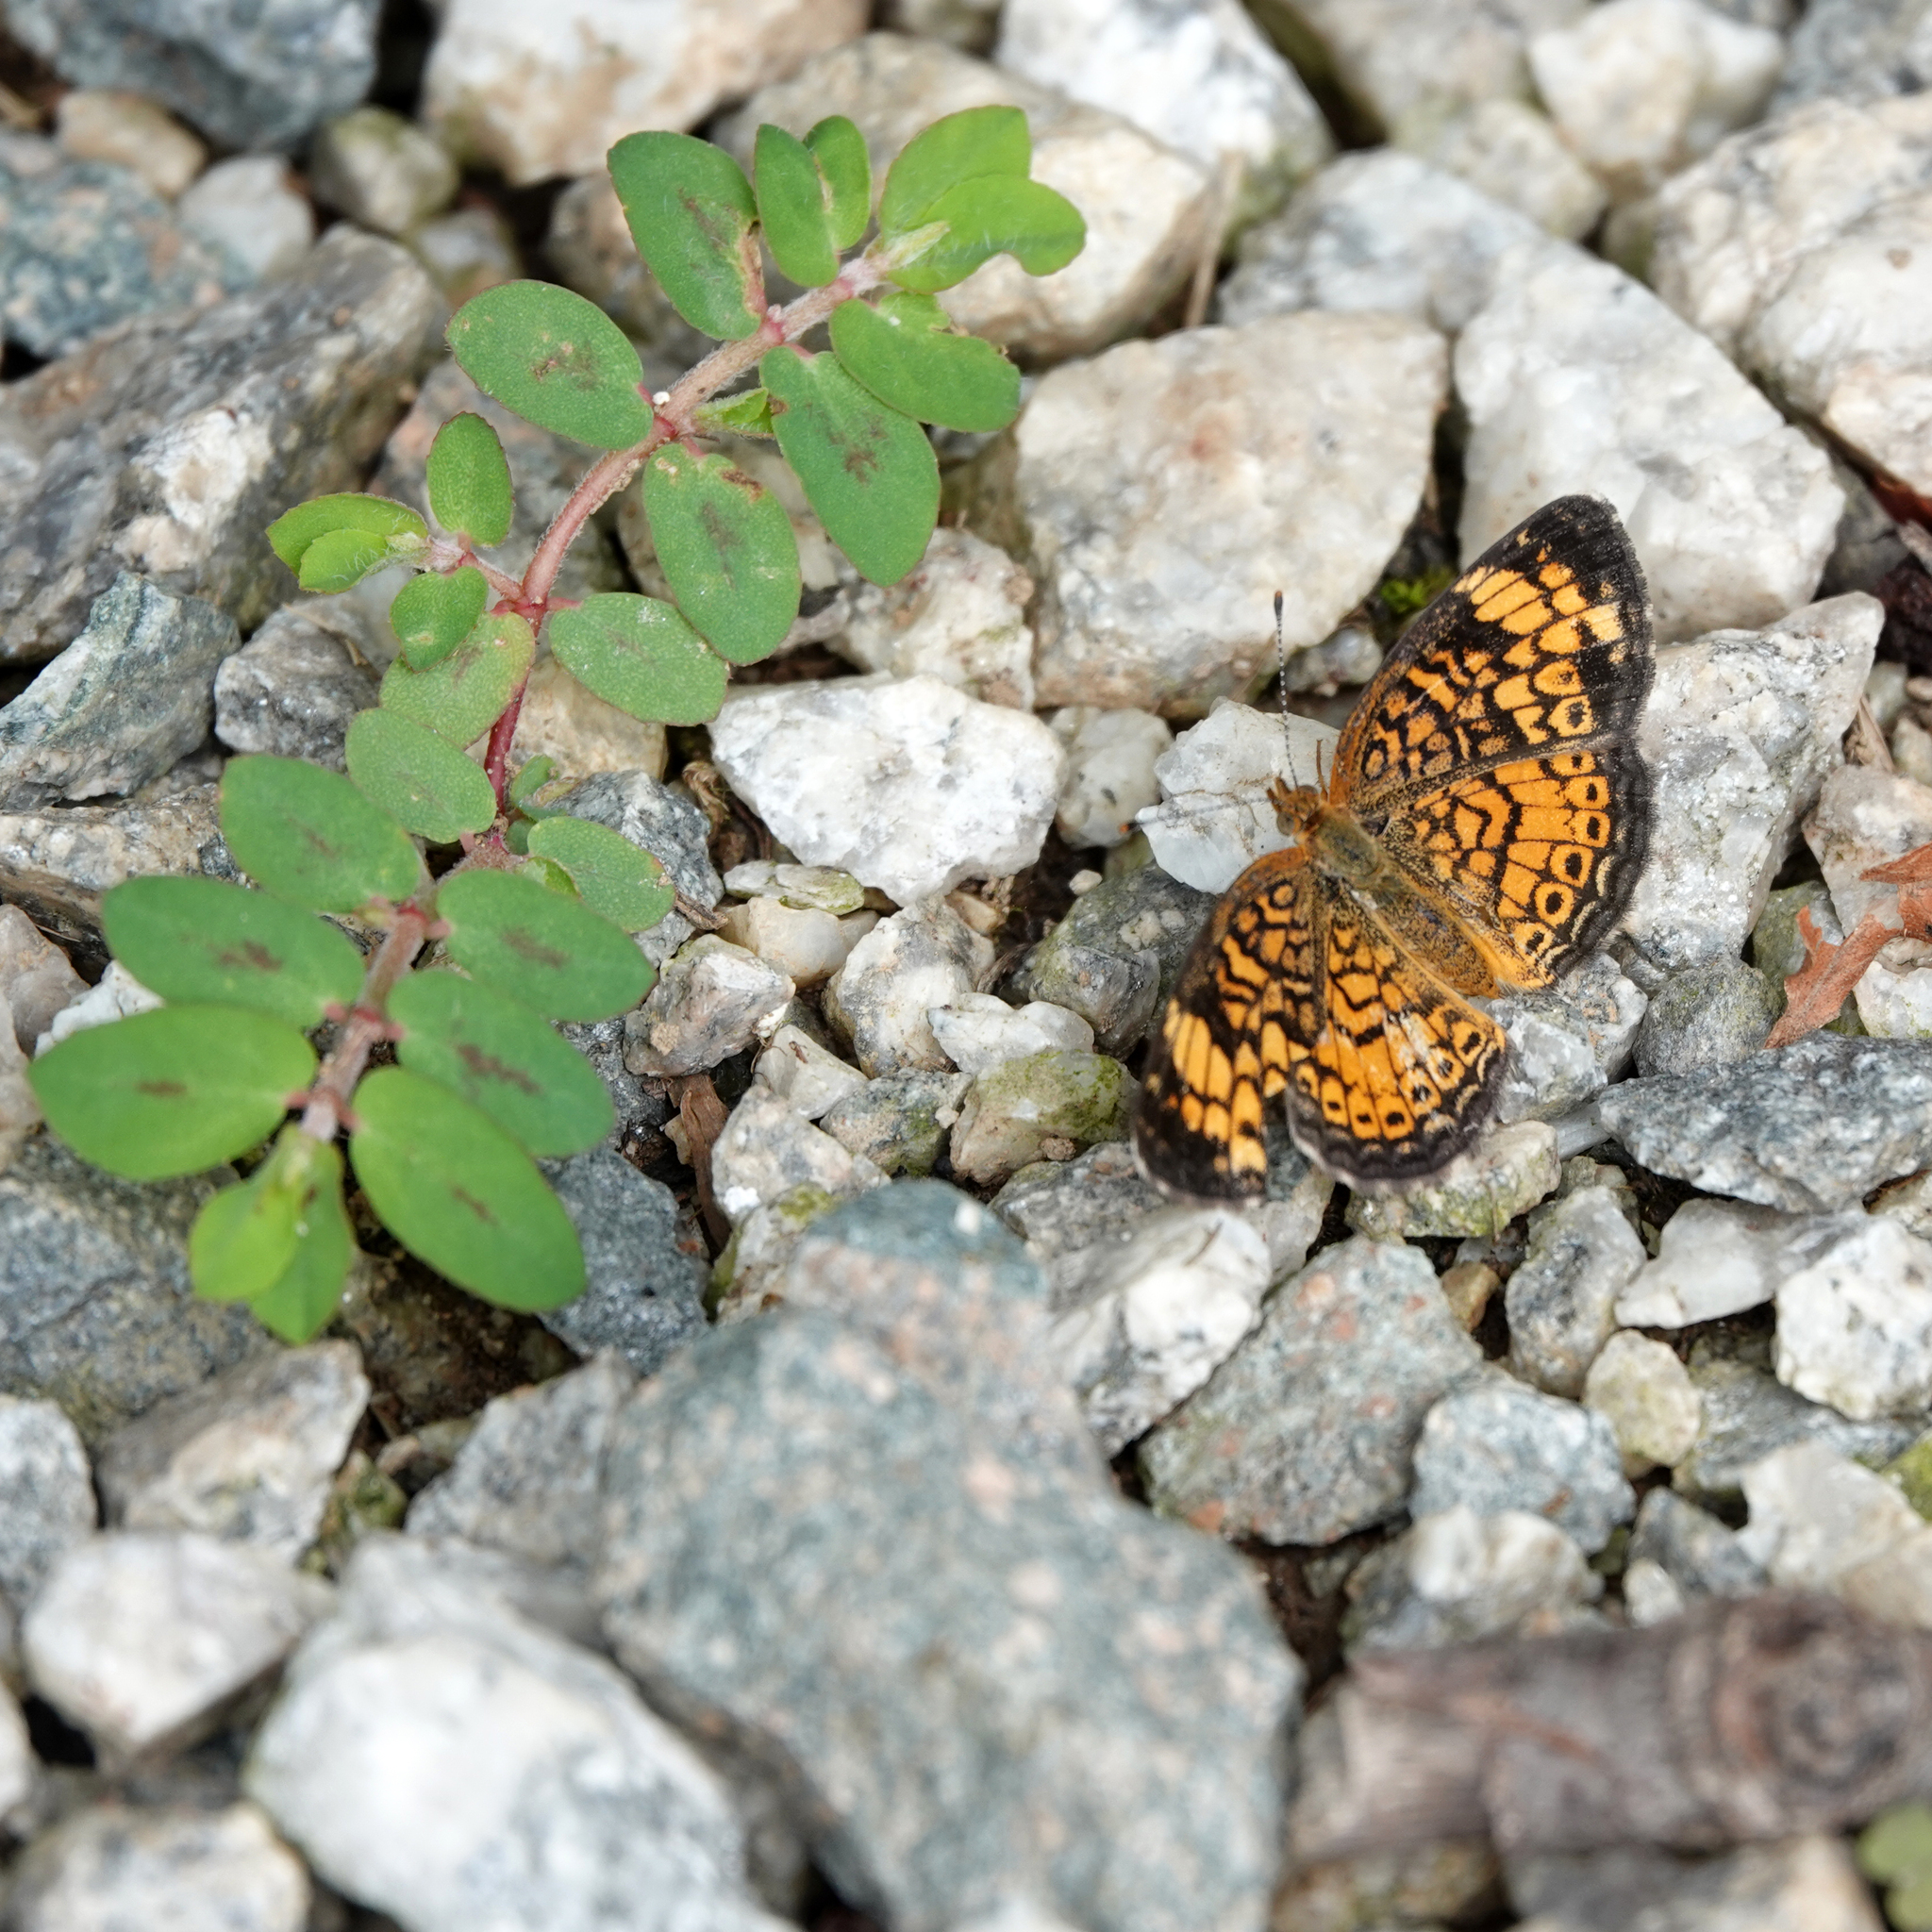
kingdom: Plantae
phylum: Tracheophyta
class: Magnoliopsida
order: Malpighiales
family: Euphorbiaceae
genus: Euphorbia
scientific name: Euphorbia maculata
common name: Spotted spurge
